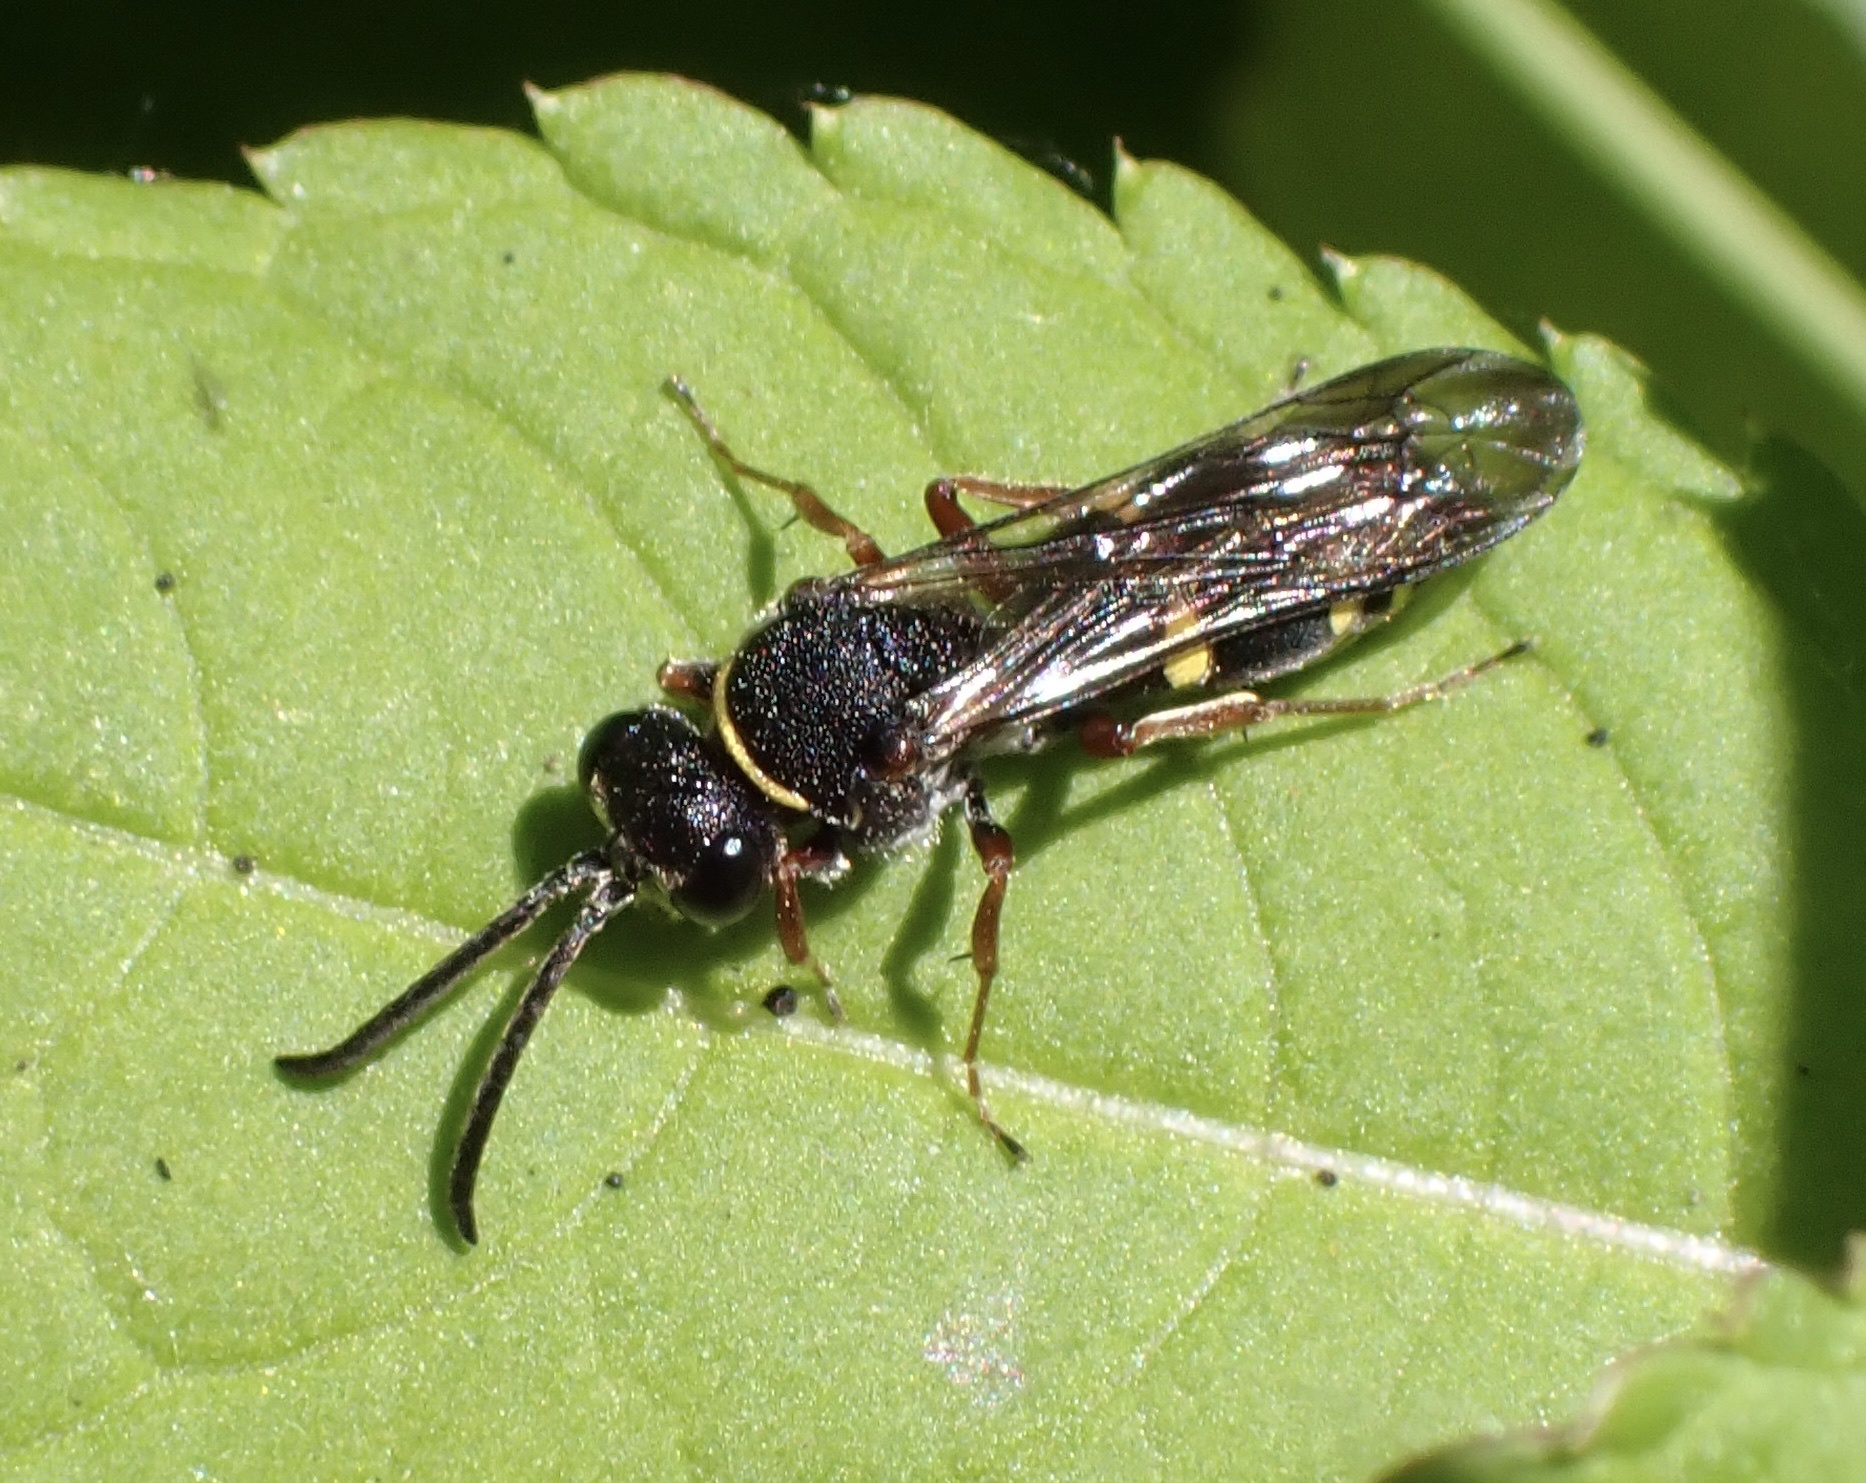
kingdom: Animalia
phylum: Arthropoda
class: Insecta
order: Hymenoptera
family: Crabronidae
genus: Nysson
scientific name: Nysson spinosus
